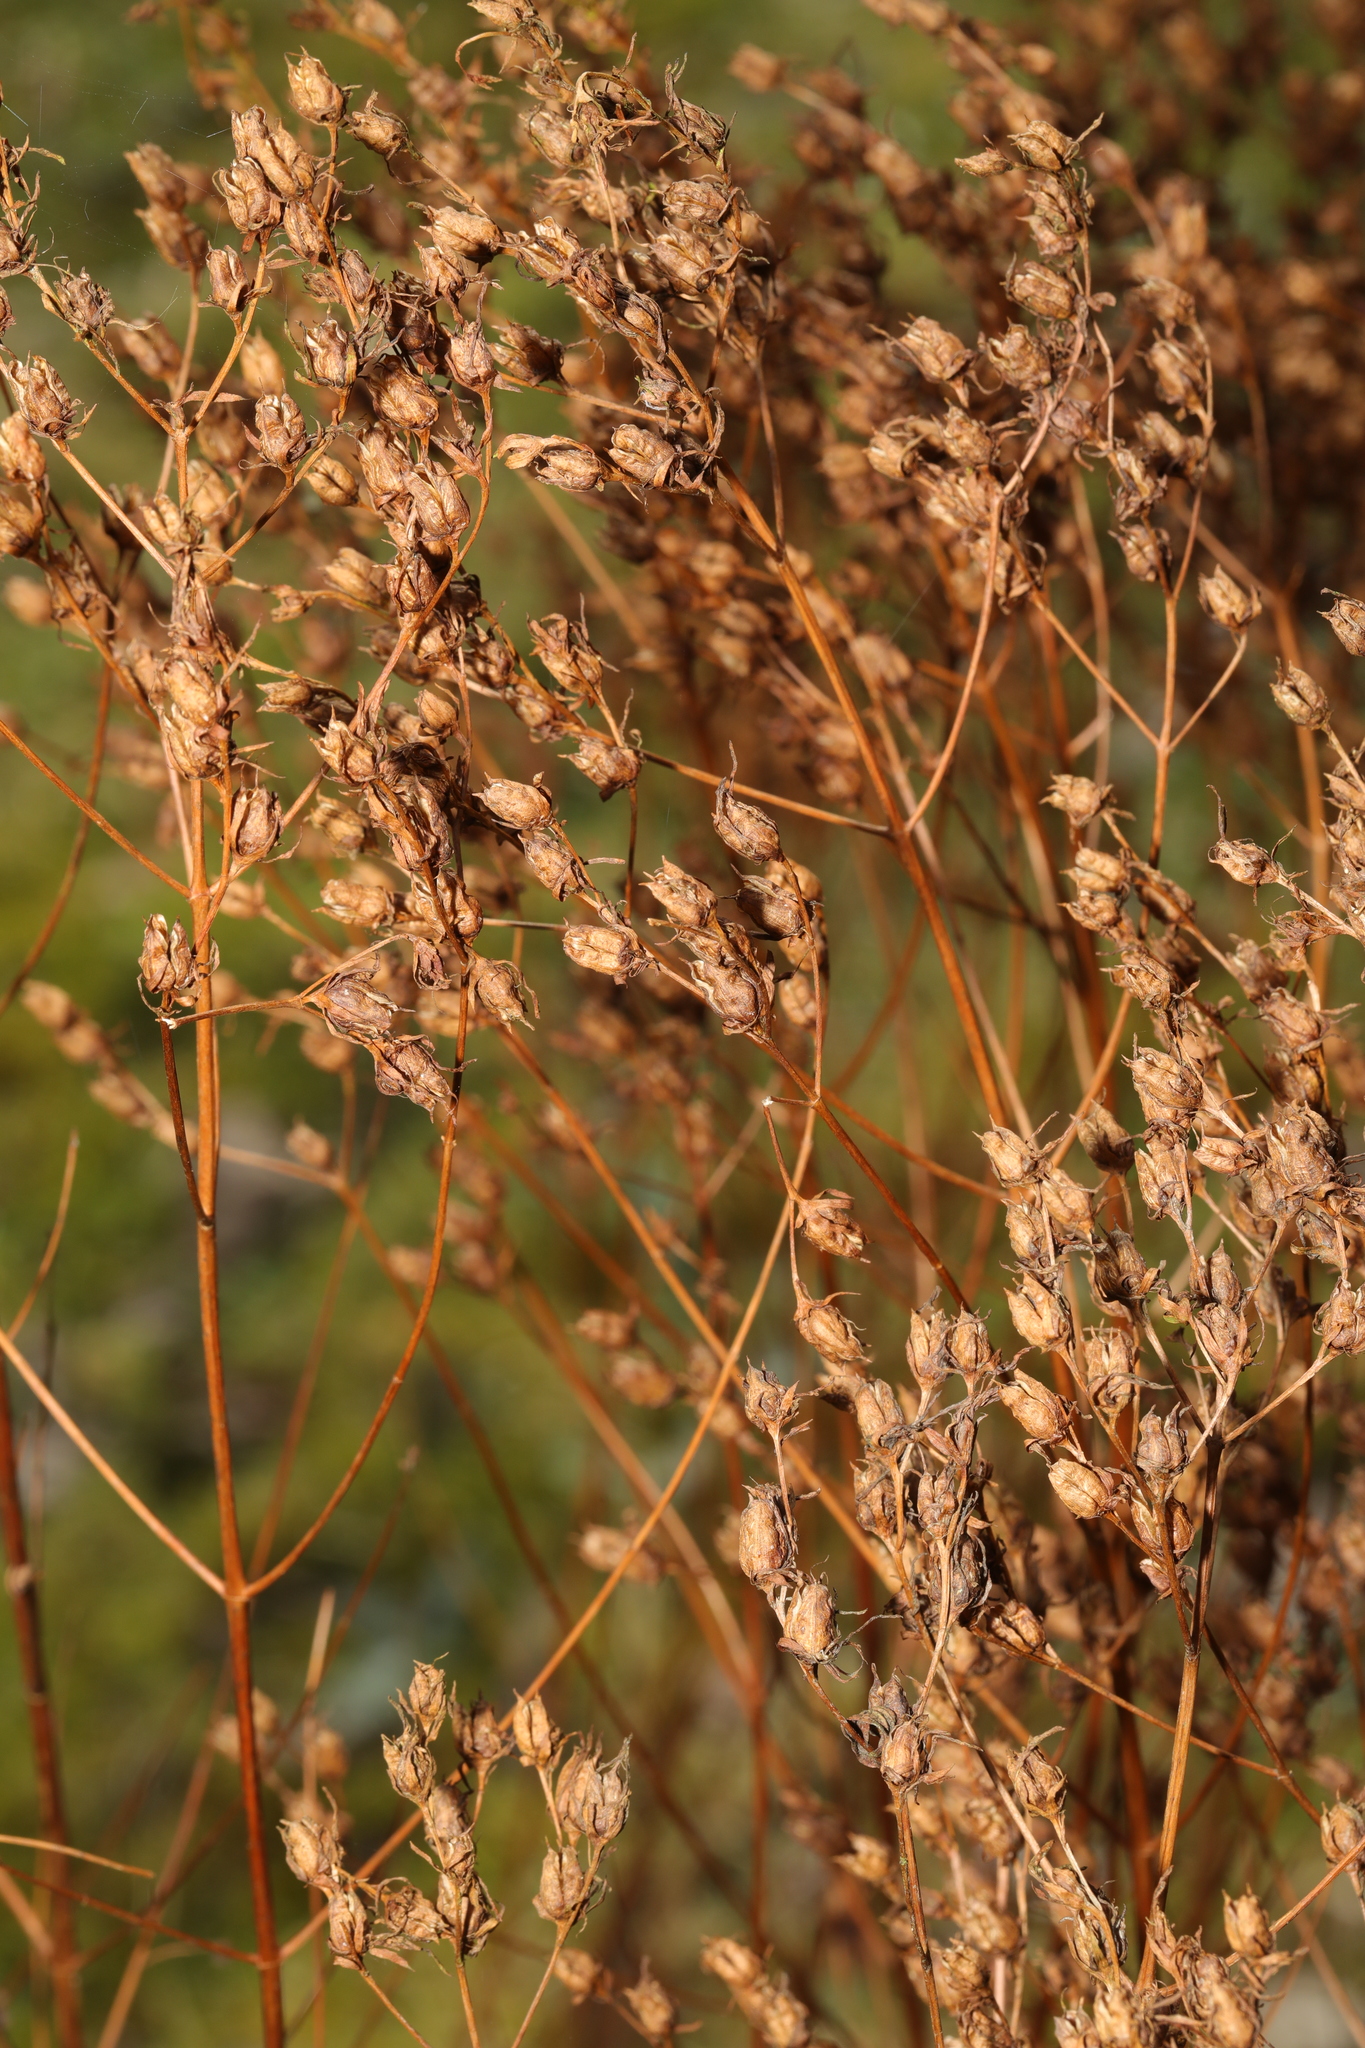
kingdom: Plantae
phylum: Tracheophyta
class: Magnoliopsida
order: Malpighiales
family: Hypericaceae
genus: Hypericum
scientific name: Hypericum perforatum
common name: Common st. johnswort
